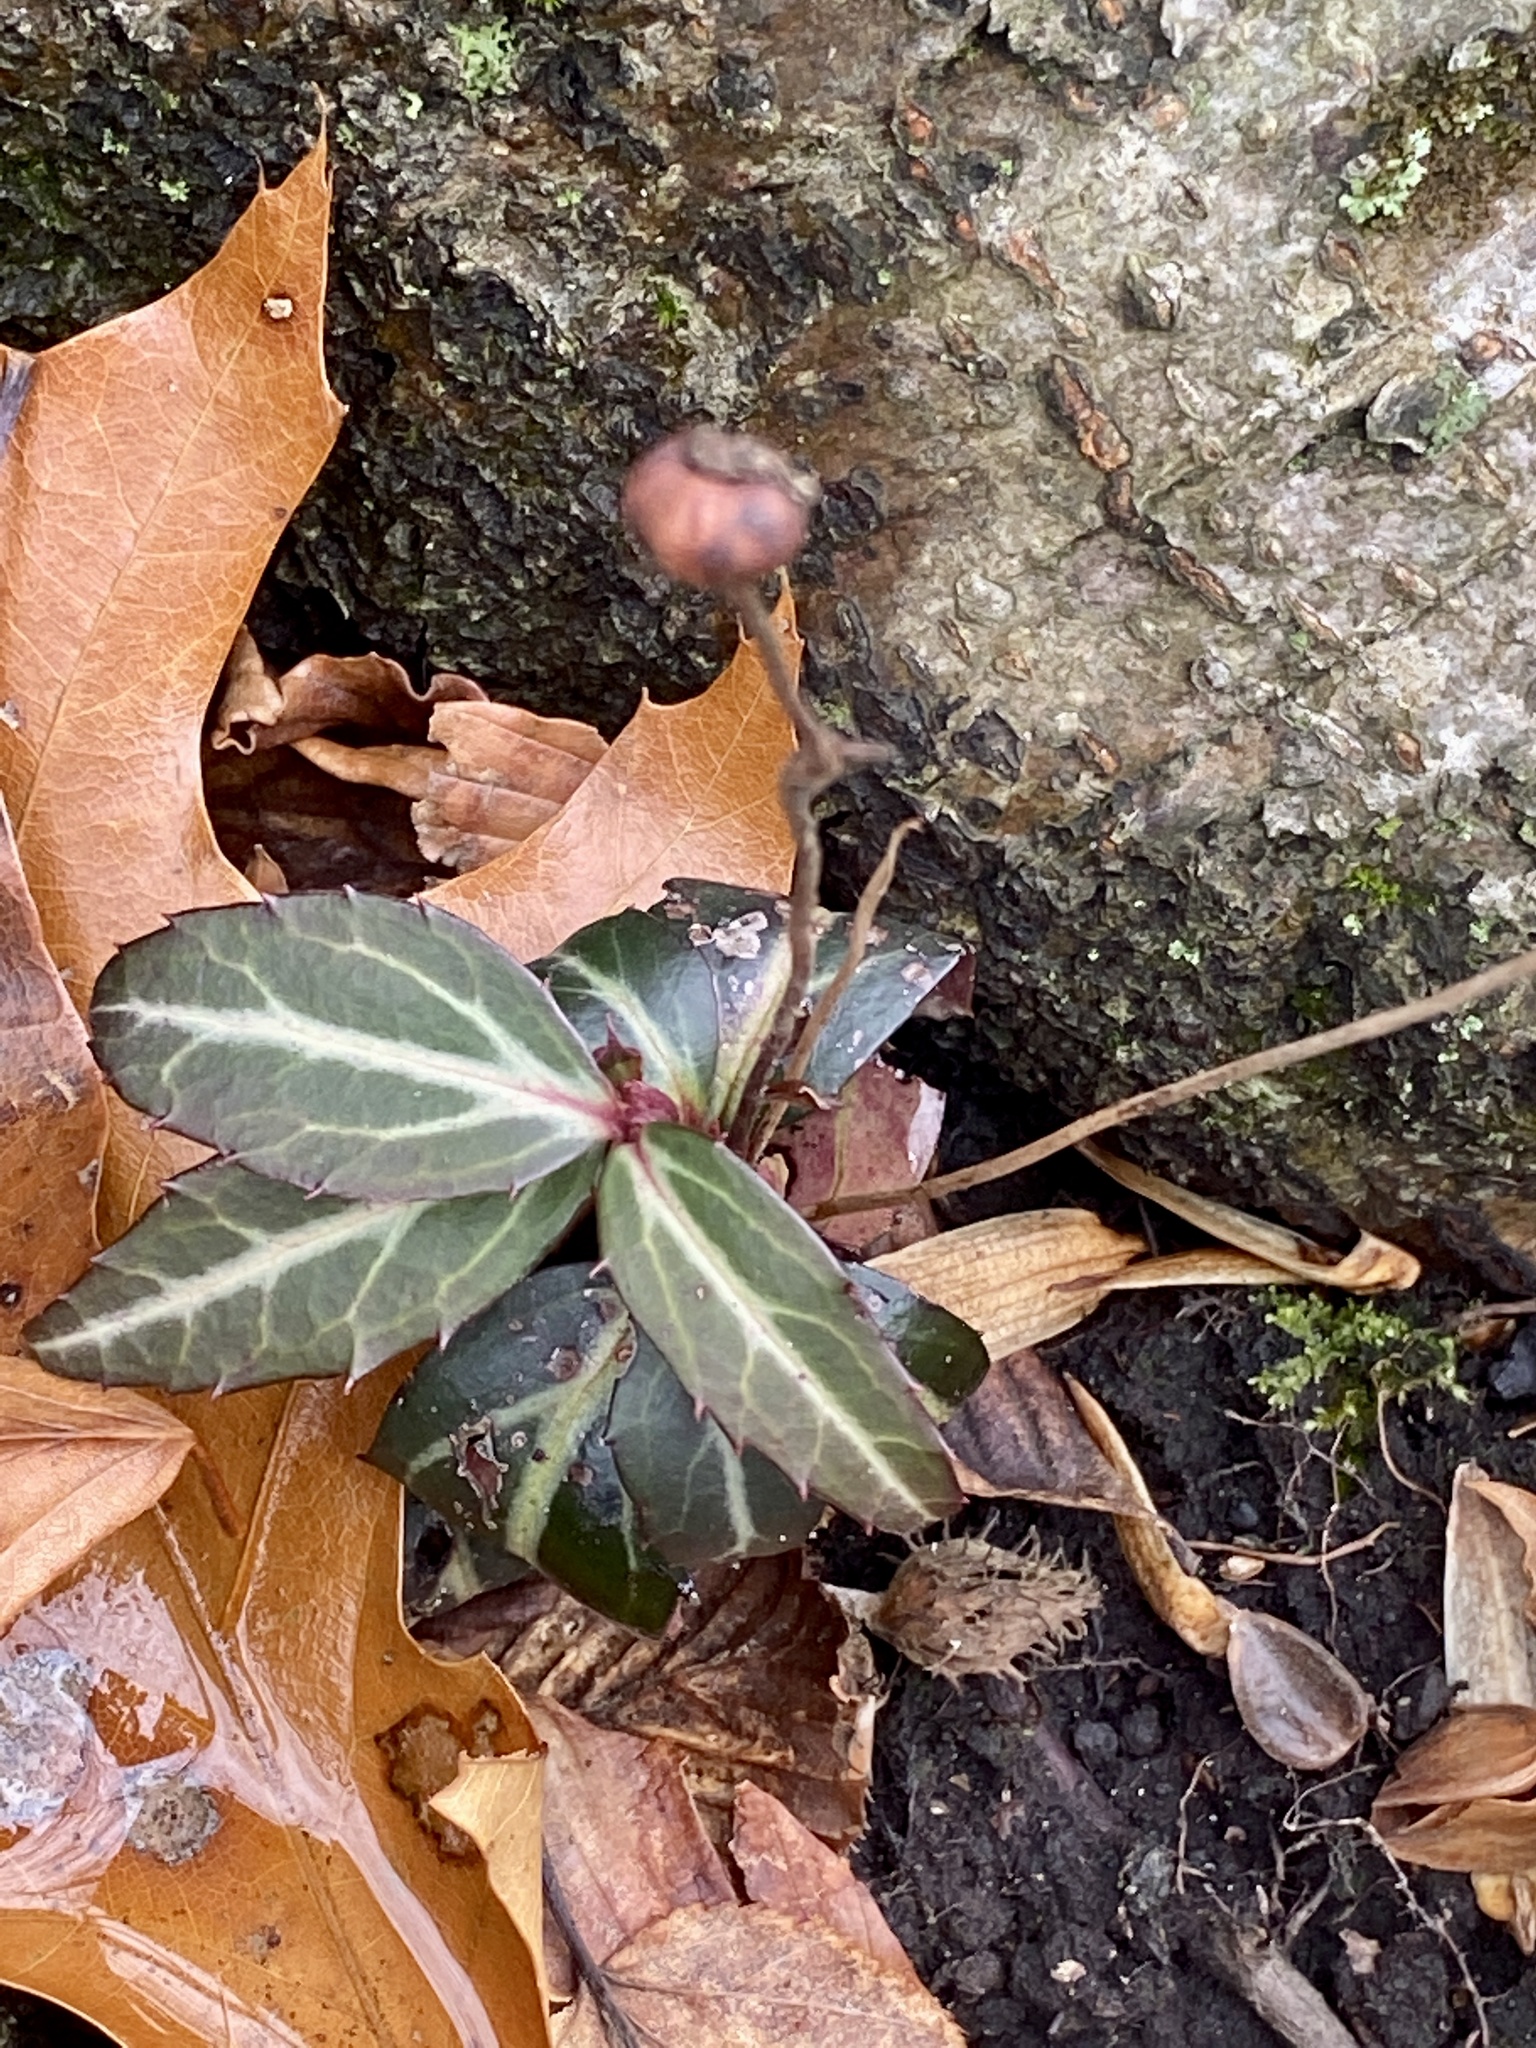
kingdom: Plantae
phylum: Tracheophyta
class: Magnoliopsida
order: Ericales
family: Ericaceae
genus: Chimaphila
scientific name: Chimaphila maculata
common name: Spotted pipsissewa
